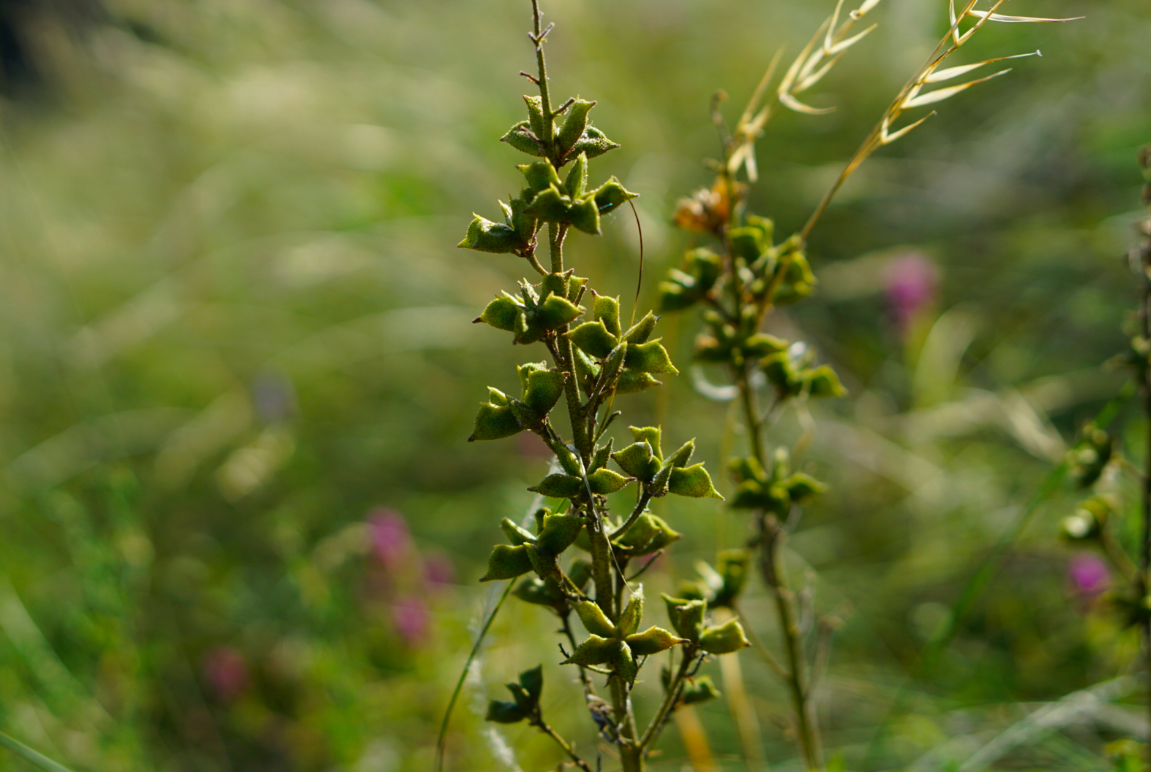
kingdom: Plantae
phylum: Tracheophyta
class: Magnoliopsida
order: Sapindales
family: Rutaceae
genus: Dictamnus
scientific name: Dictamnus albus
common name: Gasplant
